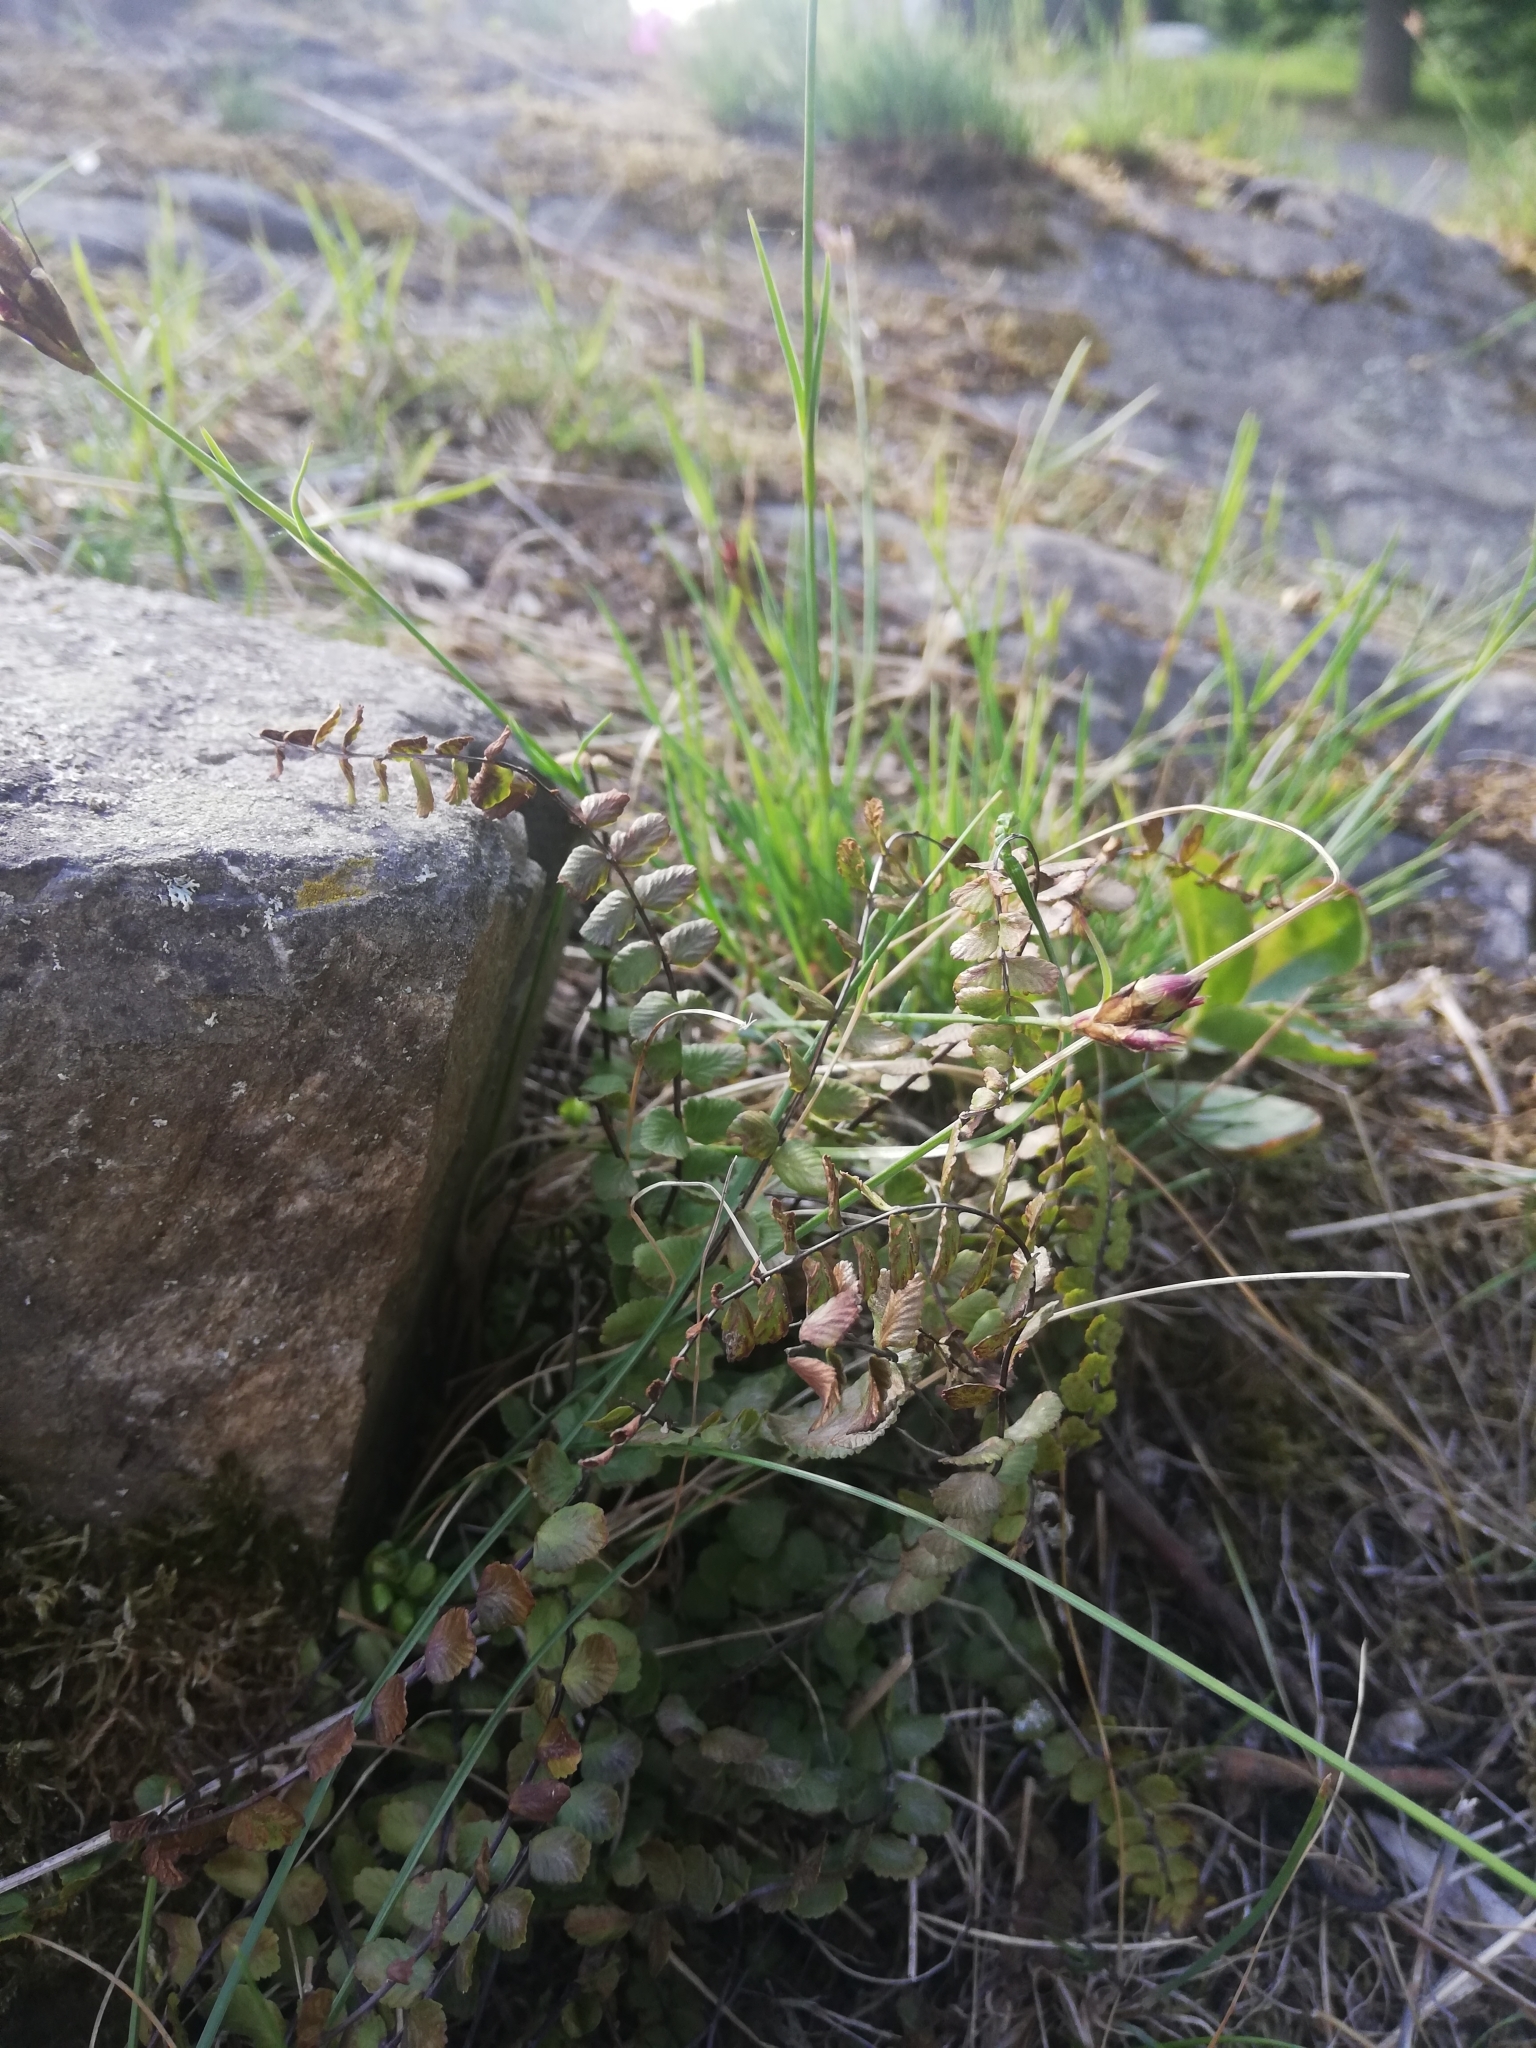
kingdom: Plantae
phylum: Tracheophyta
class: Polypodiopsida
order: Polypodiales
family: Aspleniaceae
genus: Asplenium
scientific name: Asplenium trichomanes
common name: Maidenhair spleenwort
